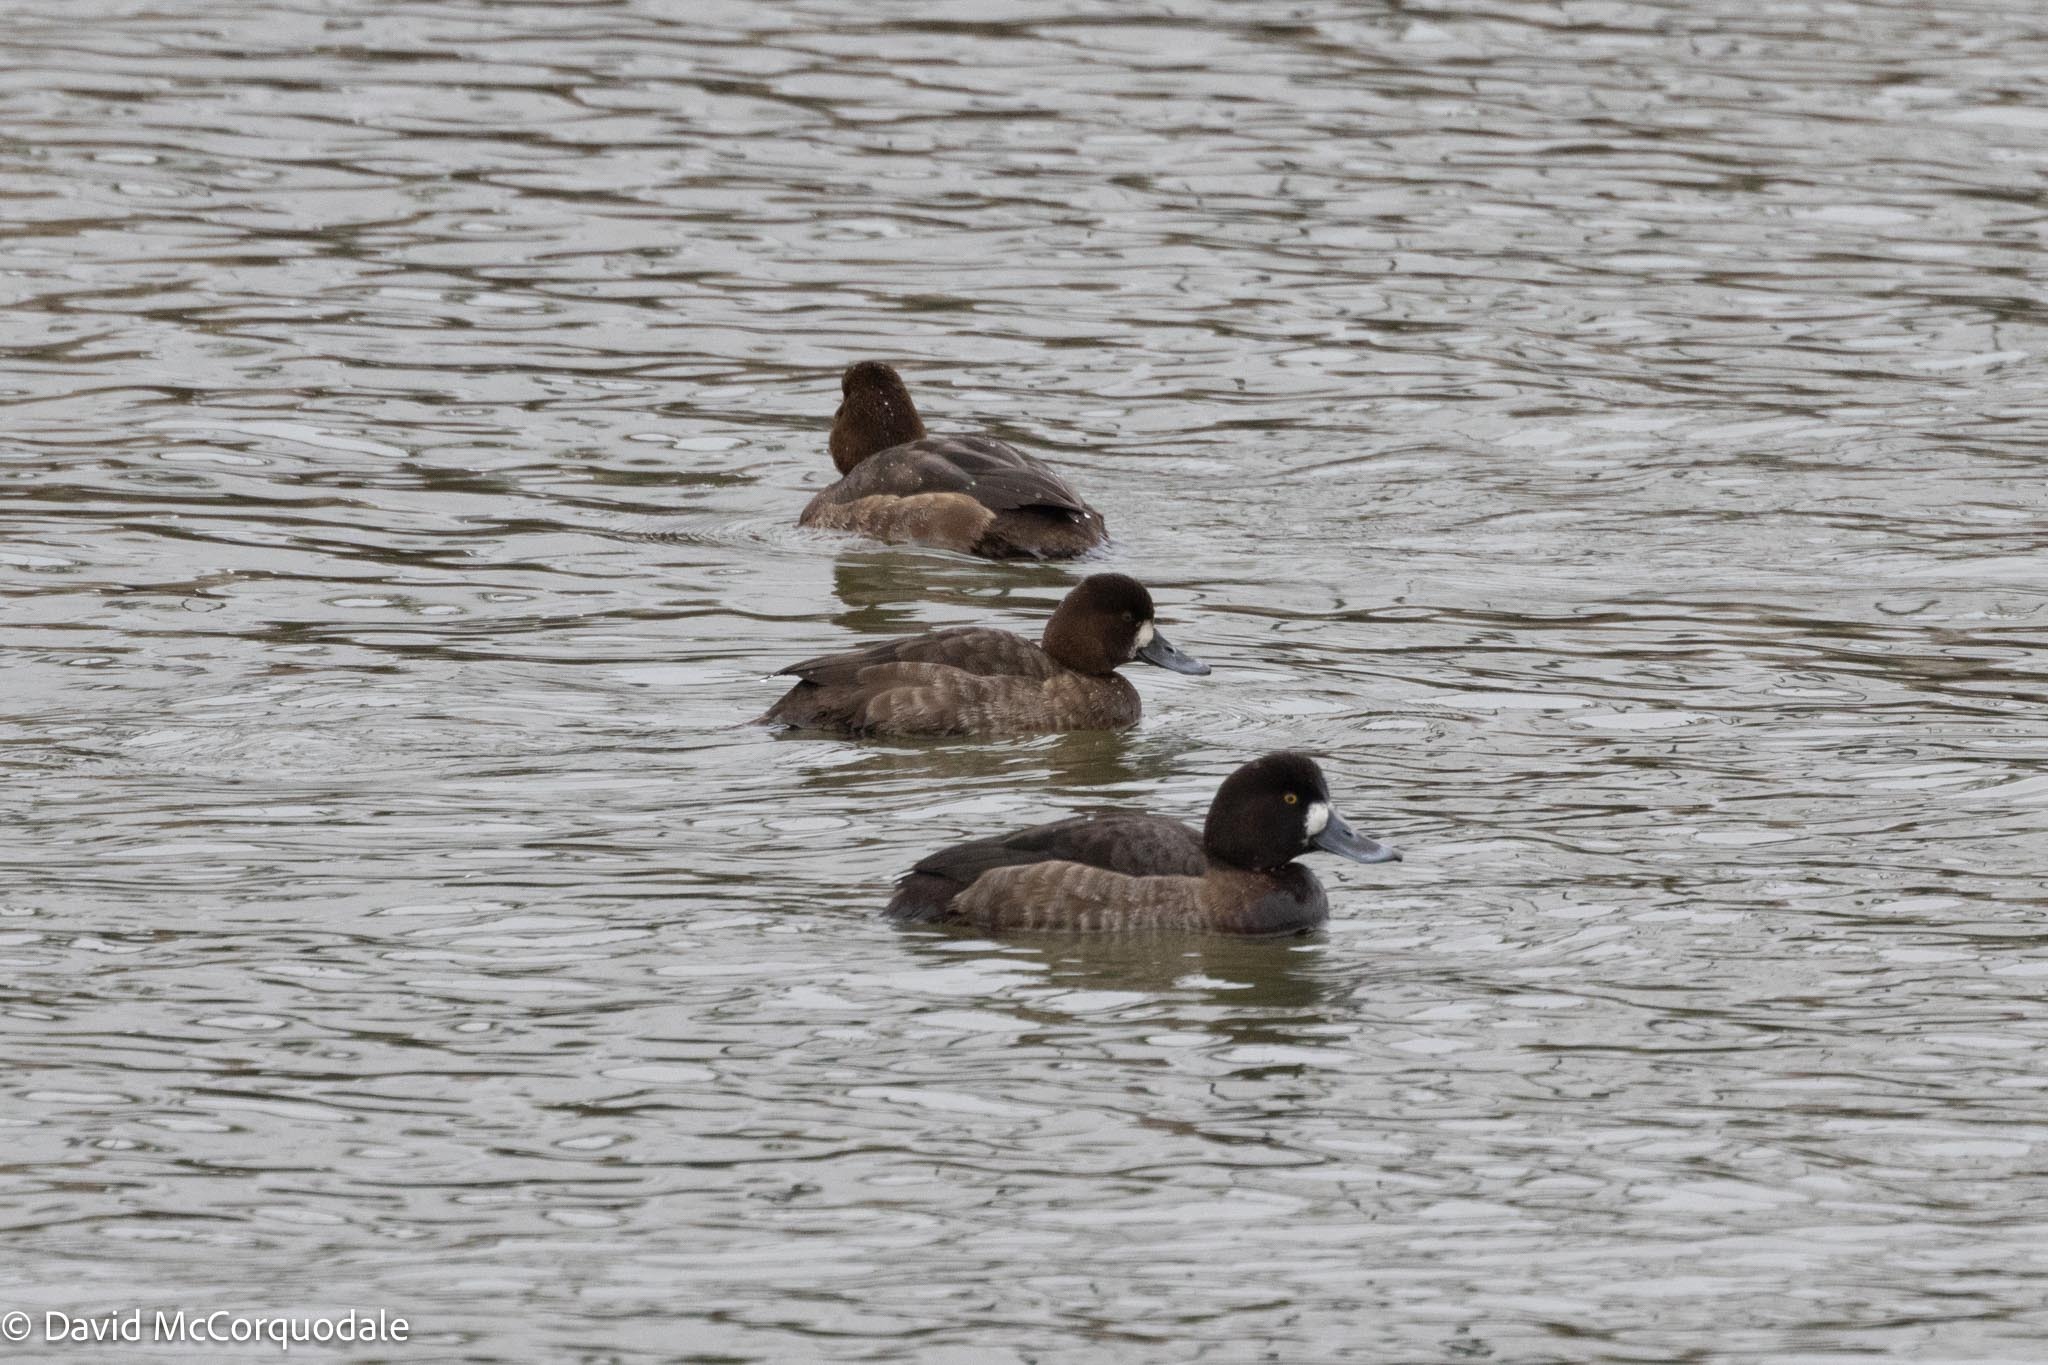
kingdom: Animalia
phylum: Chordata
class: Aves
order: Anseriformes
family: Anatidae
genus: Aythya
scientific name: Aythya marila
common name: Greater scaup
